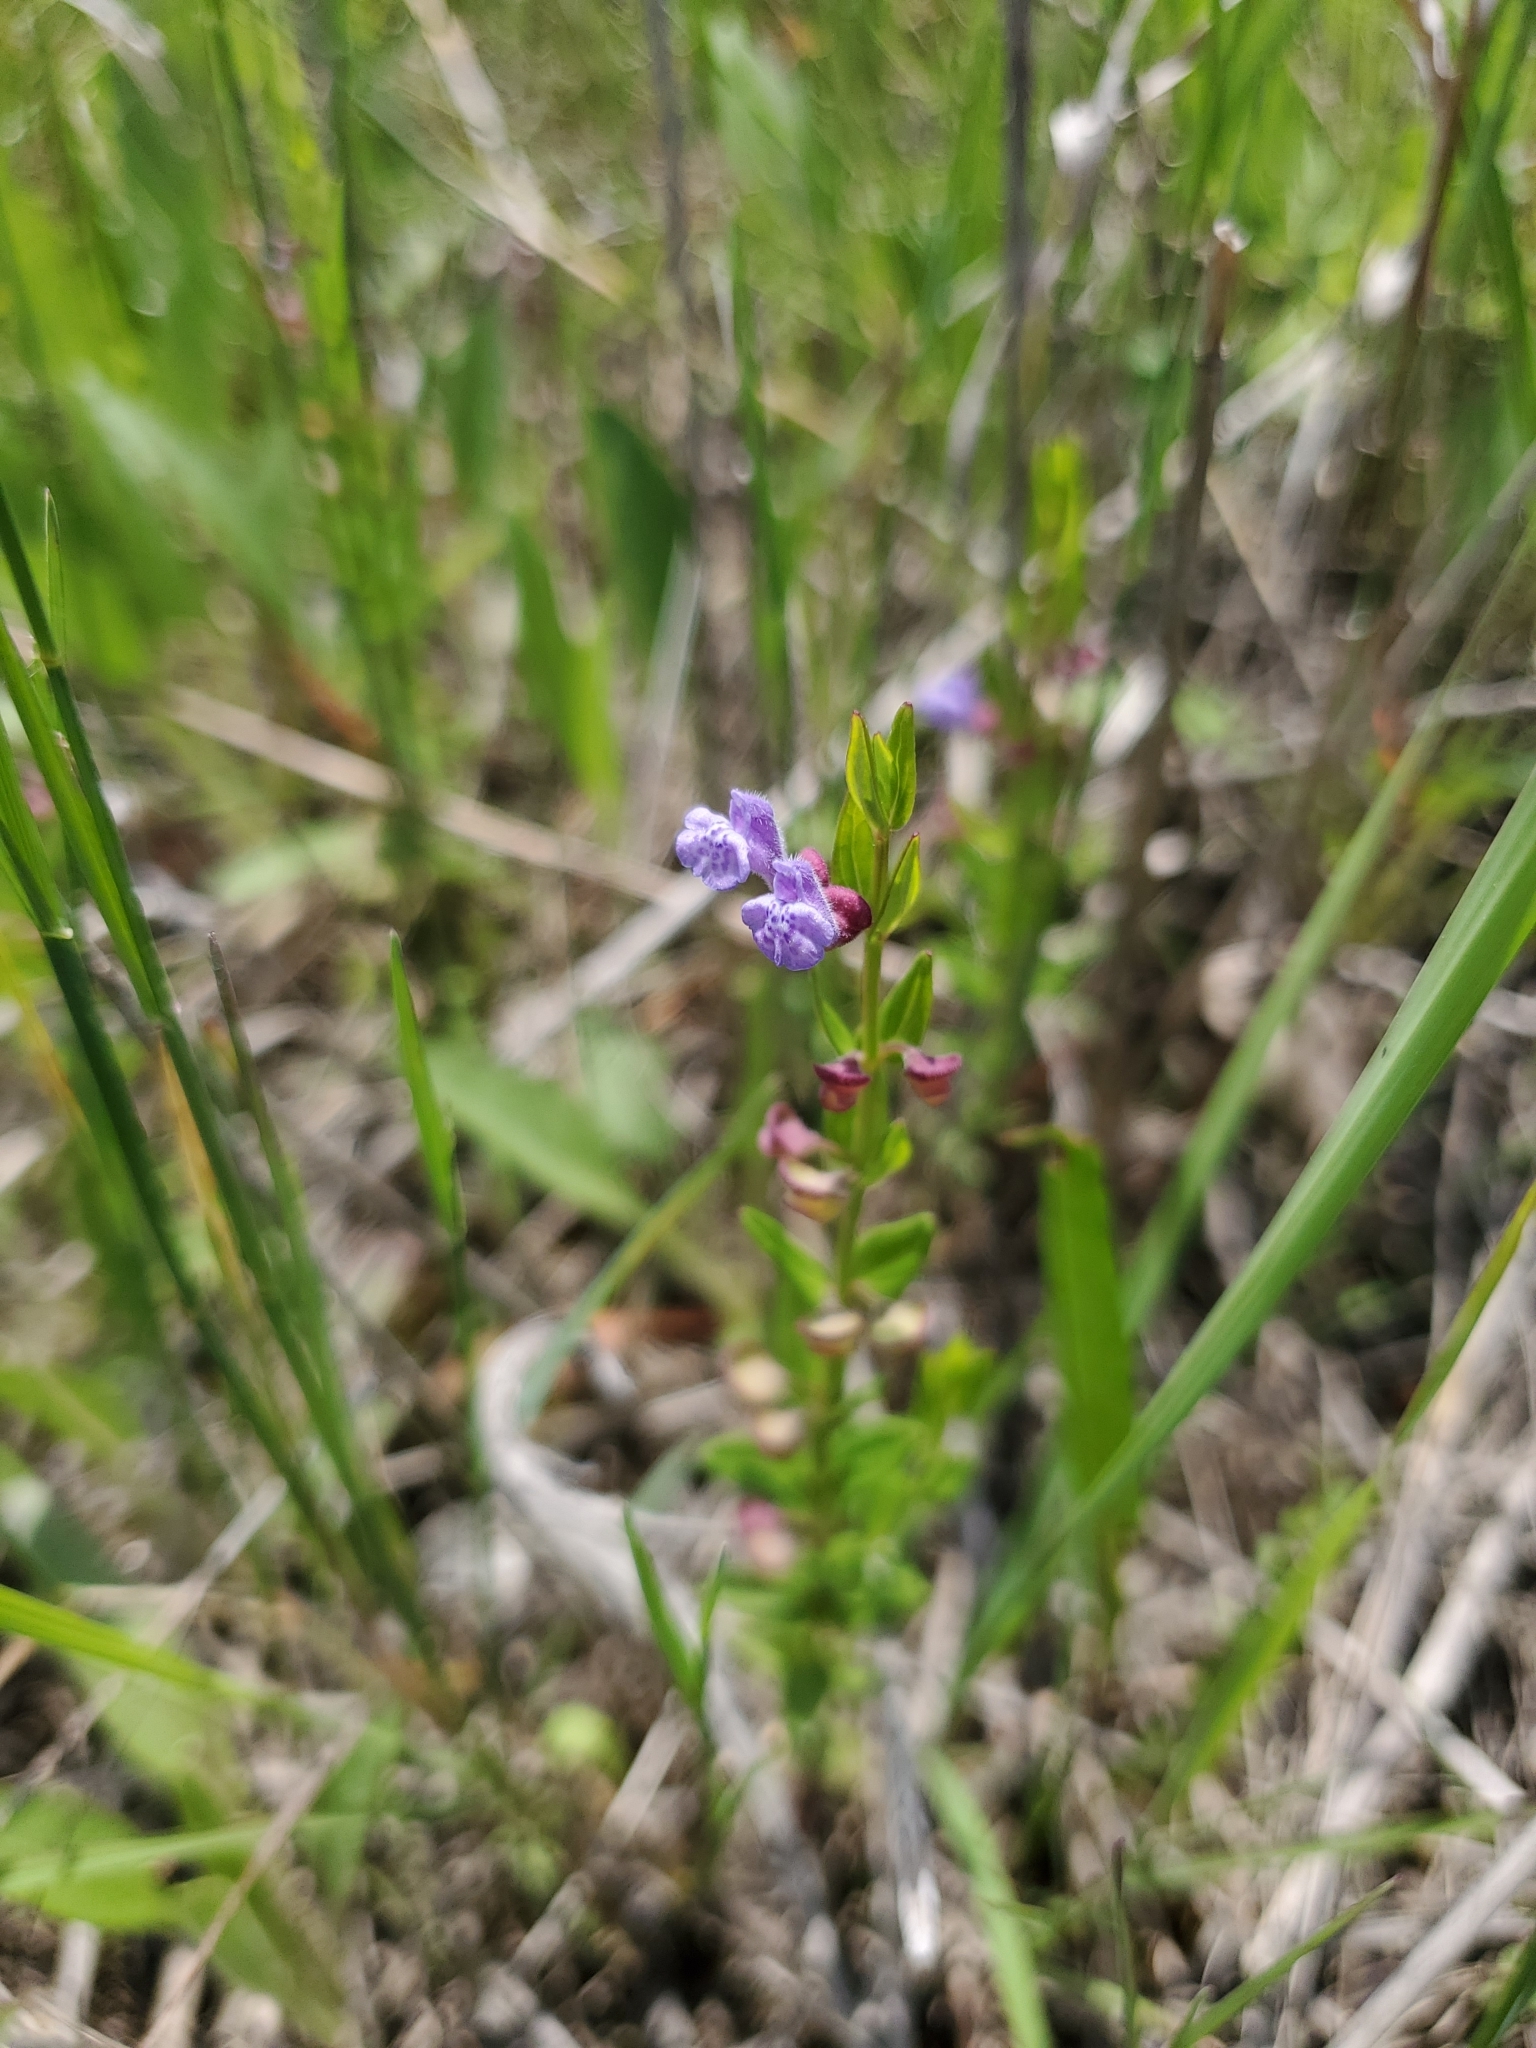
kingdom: Plantae
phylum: Tracheophyta
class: Magnoliopsida
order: Lamiales
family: Lamiaceae
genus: Scutellaria
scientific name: Scutellaria parvula
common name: Little scullcap
